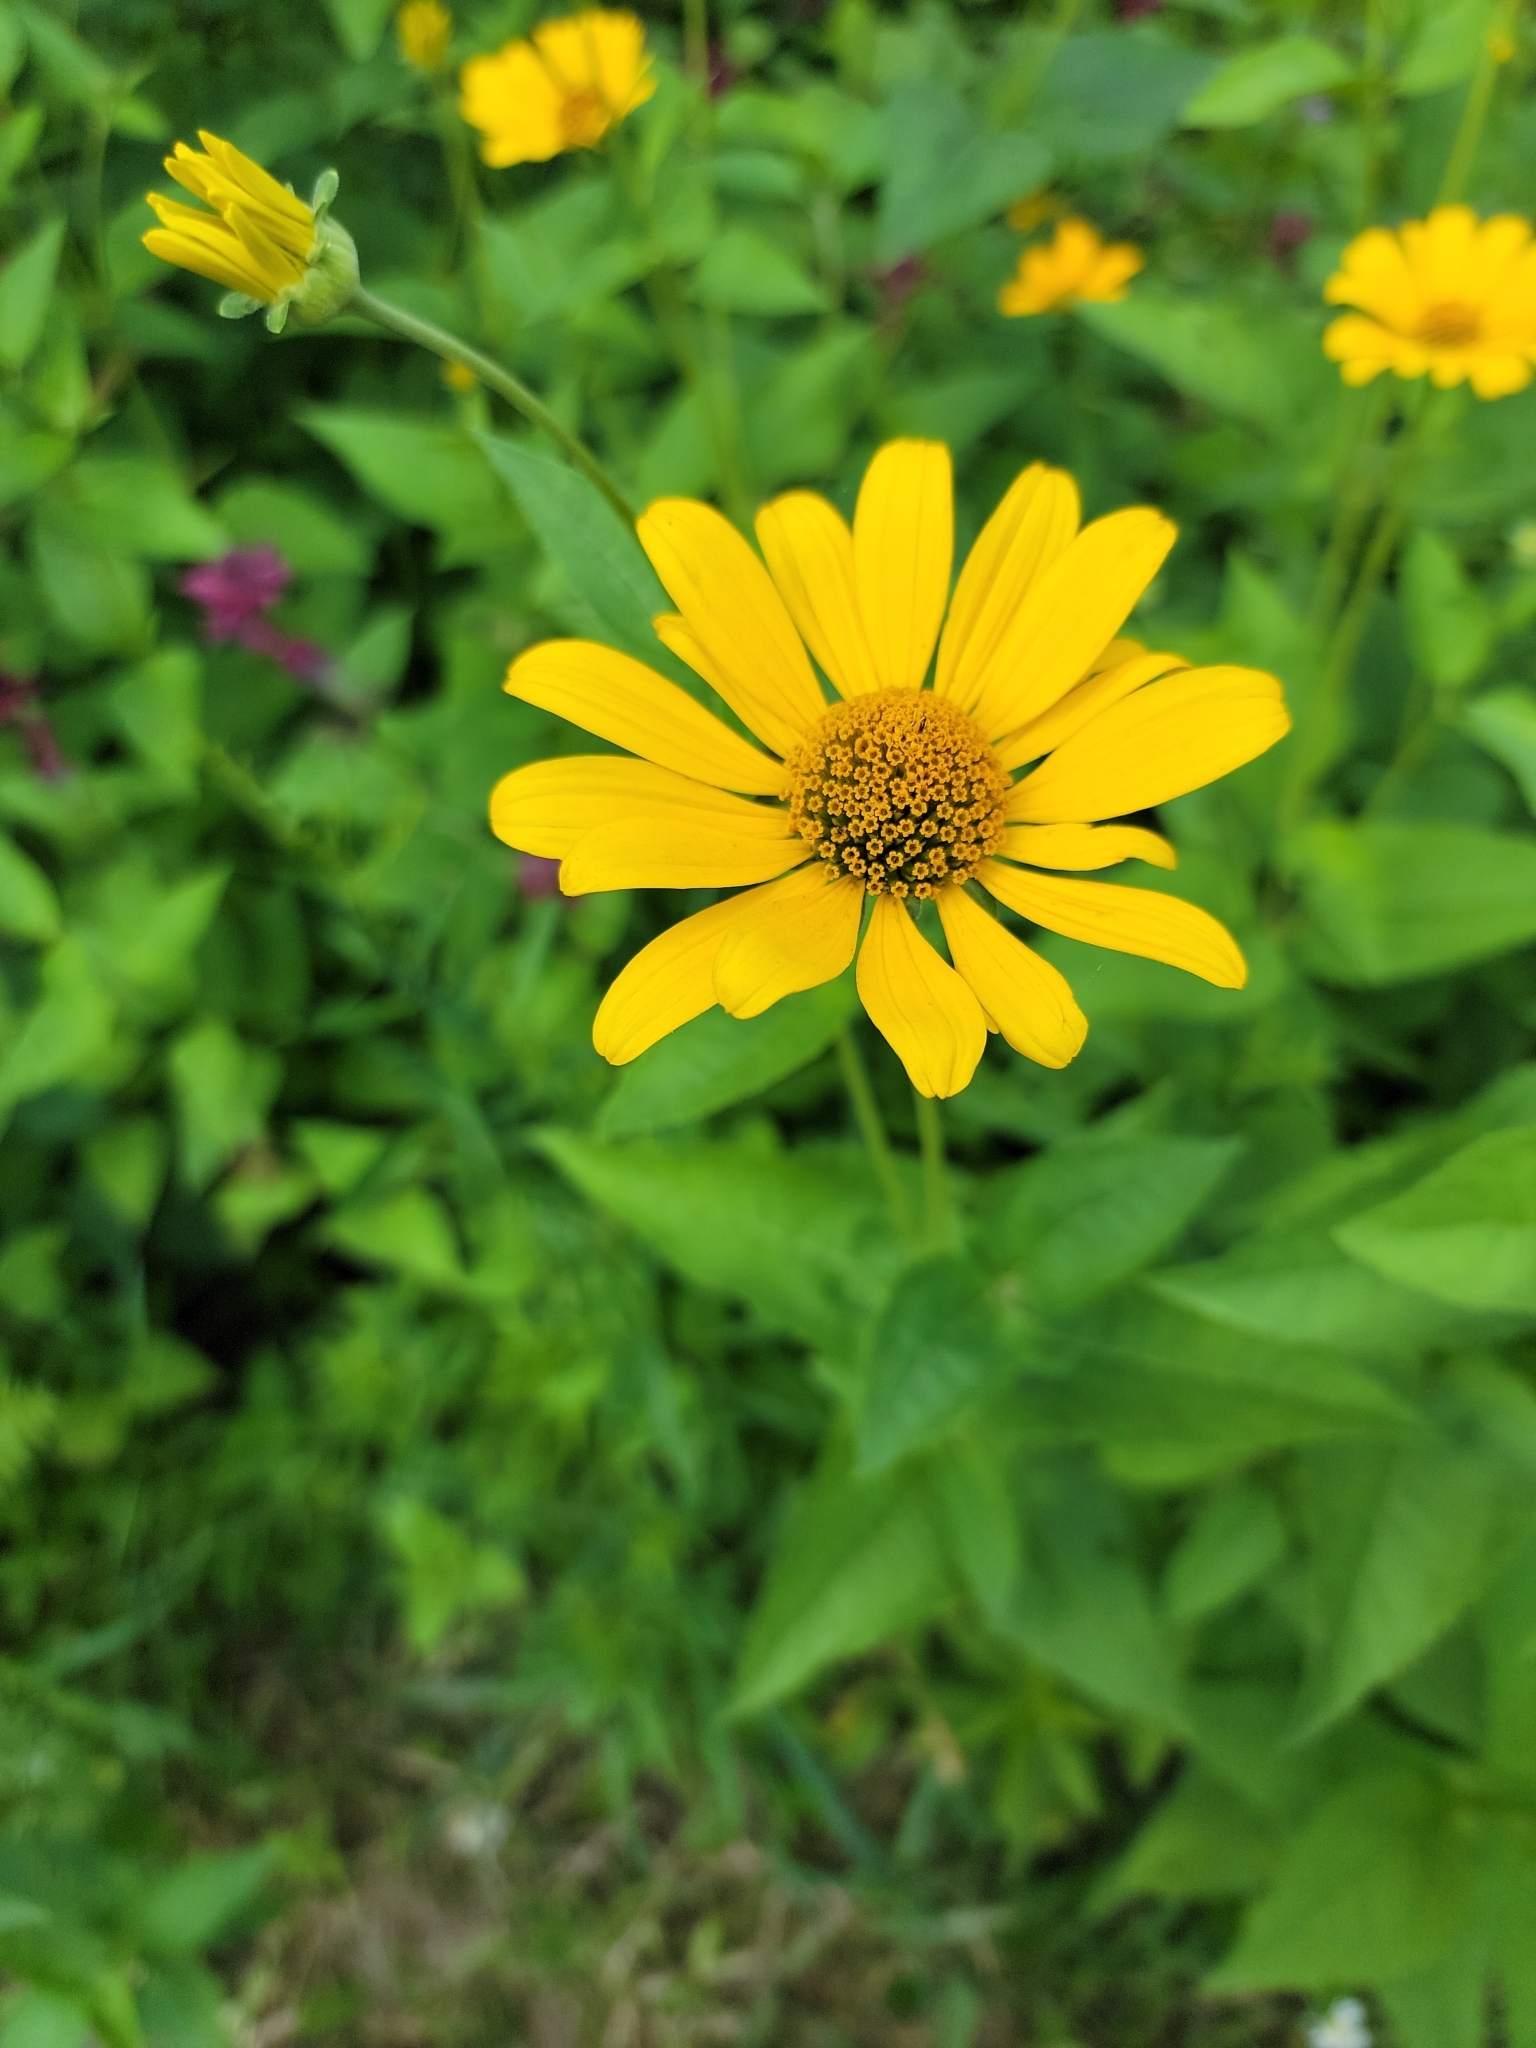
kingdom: Plantae
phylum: Tracheophyta
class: Magnoliopsida
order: Asterales
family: Asteraceae
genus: Heliopsis
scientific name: Heliopsis helianthoides
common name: False sunflower
